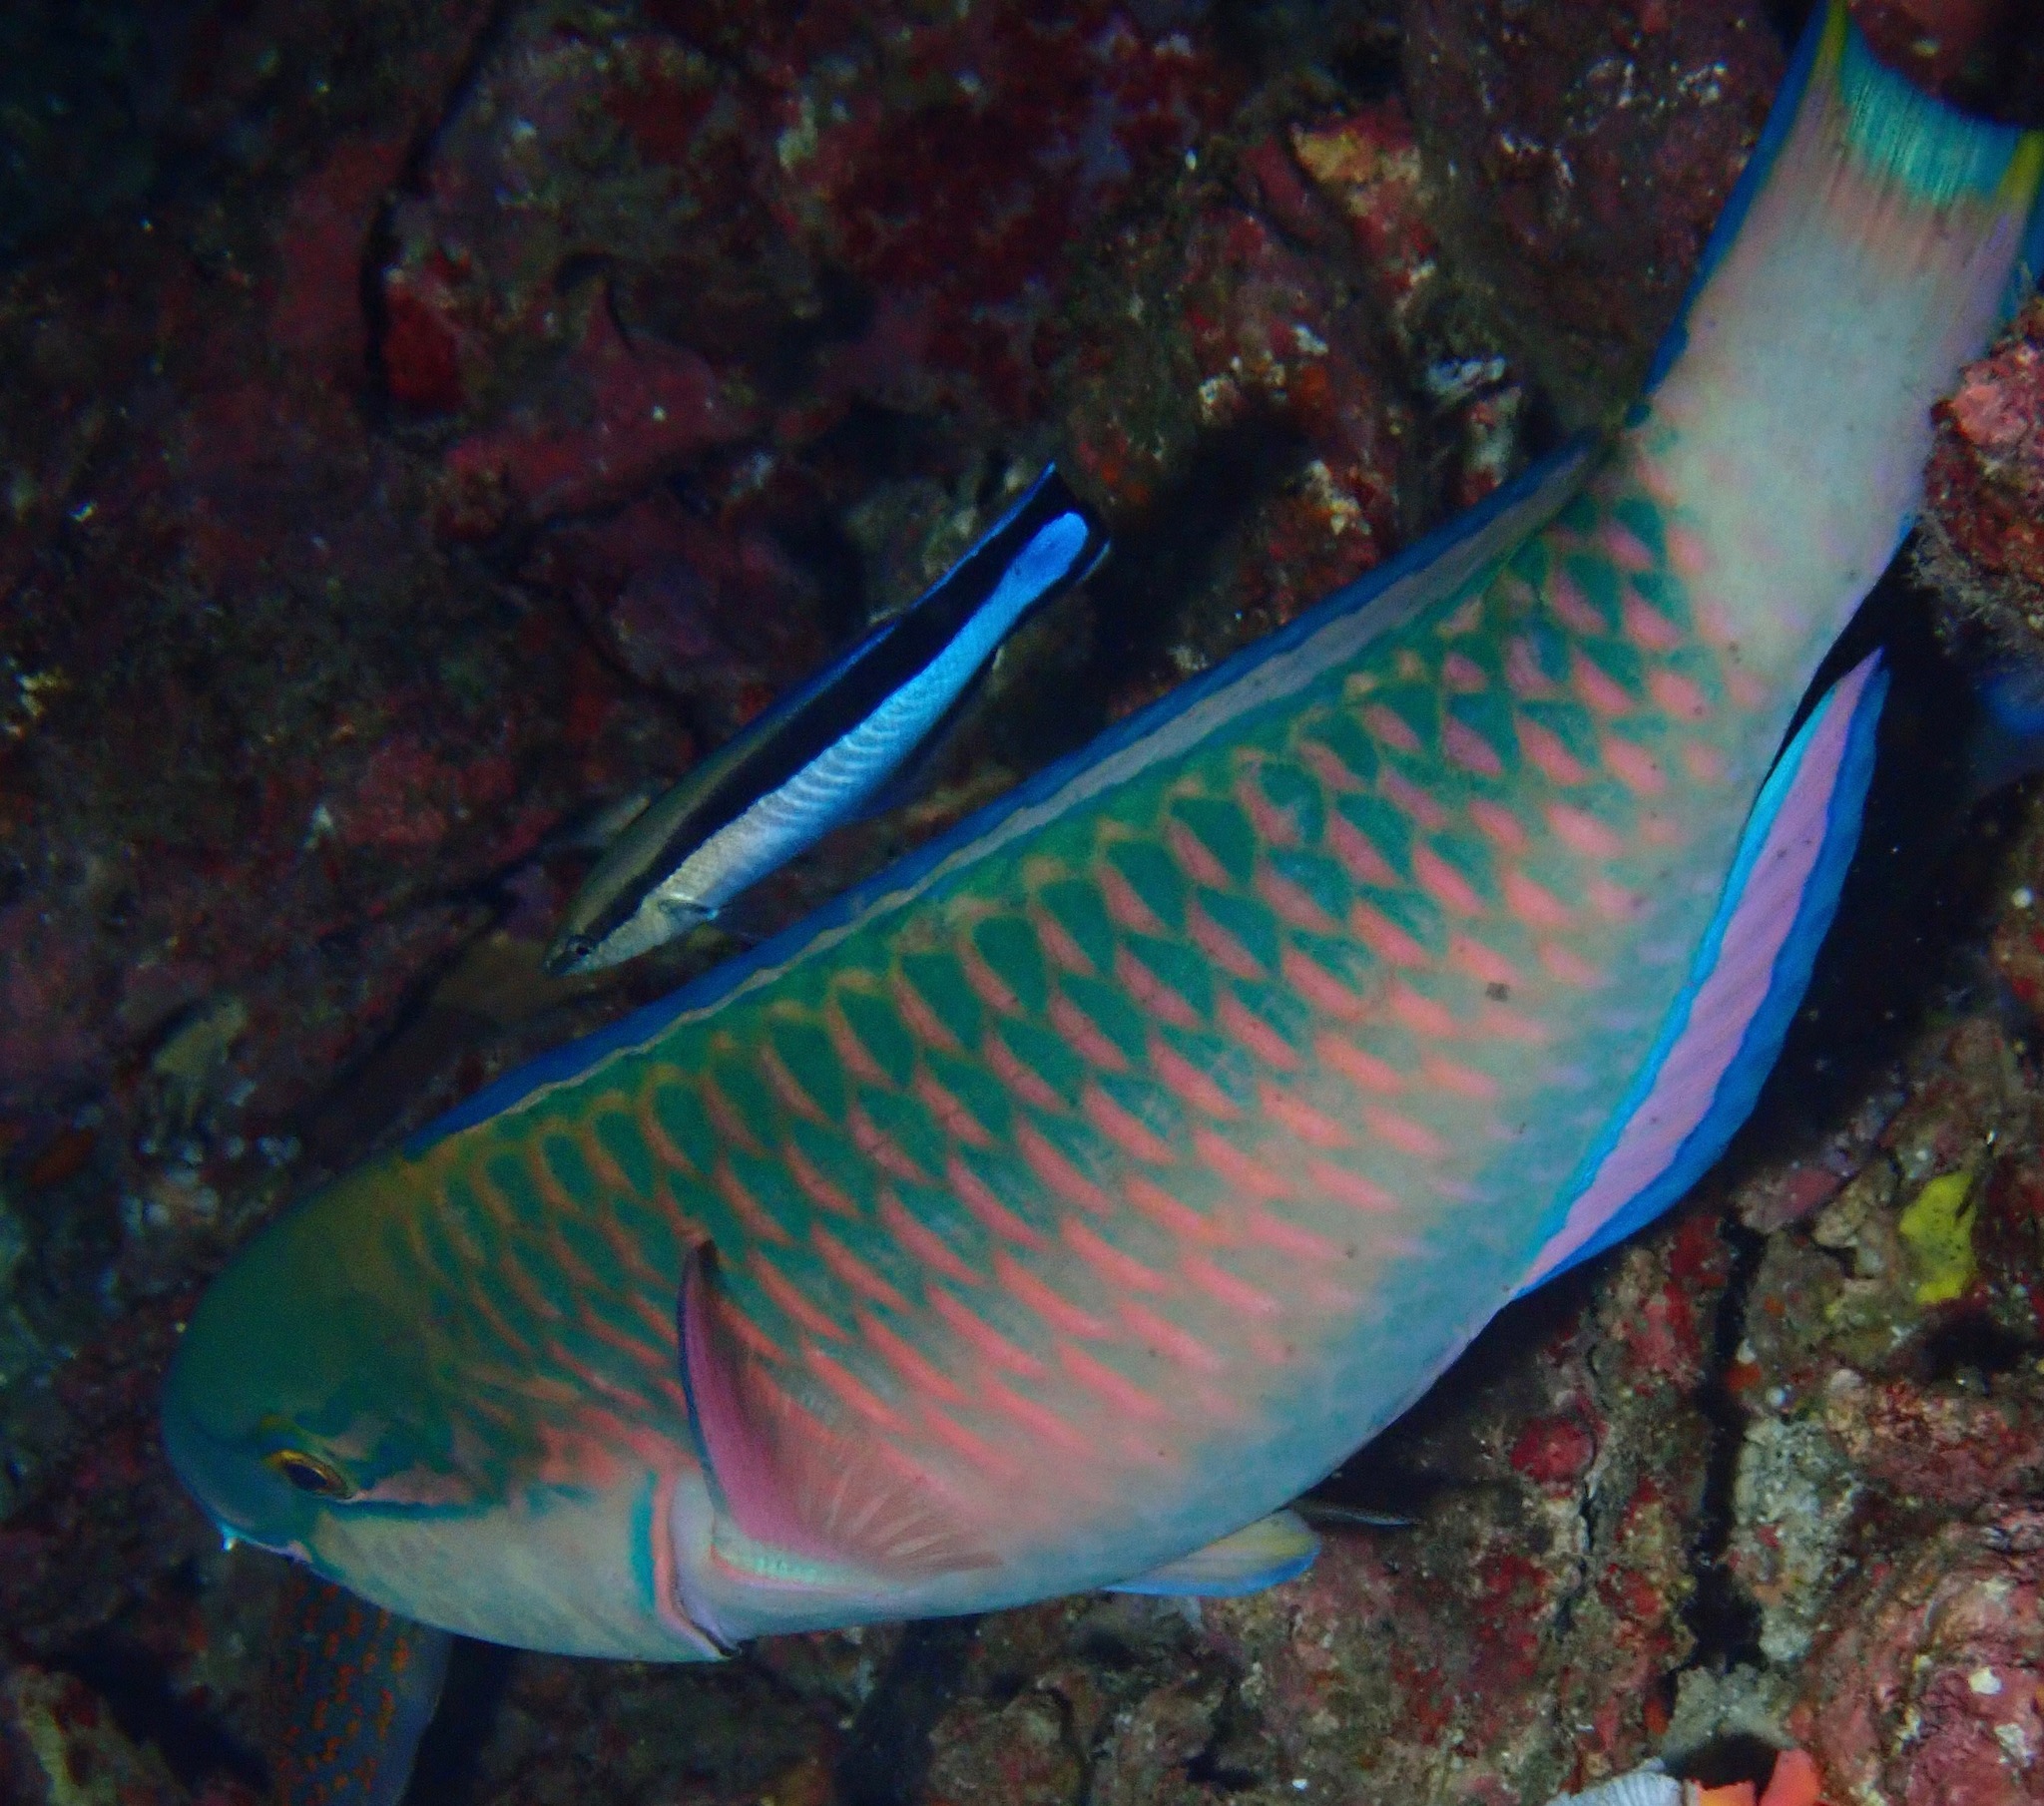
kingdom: Animalia
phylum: Chordata
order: Perciformes
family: Scaridae
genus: Chlorurus
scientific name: Chlorurus capistratoides
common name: Pink-margined parrotfish
